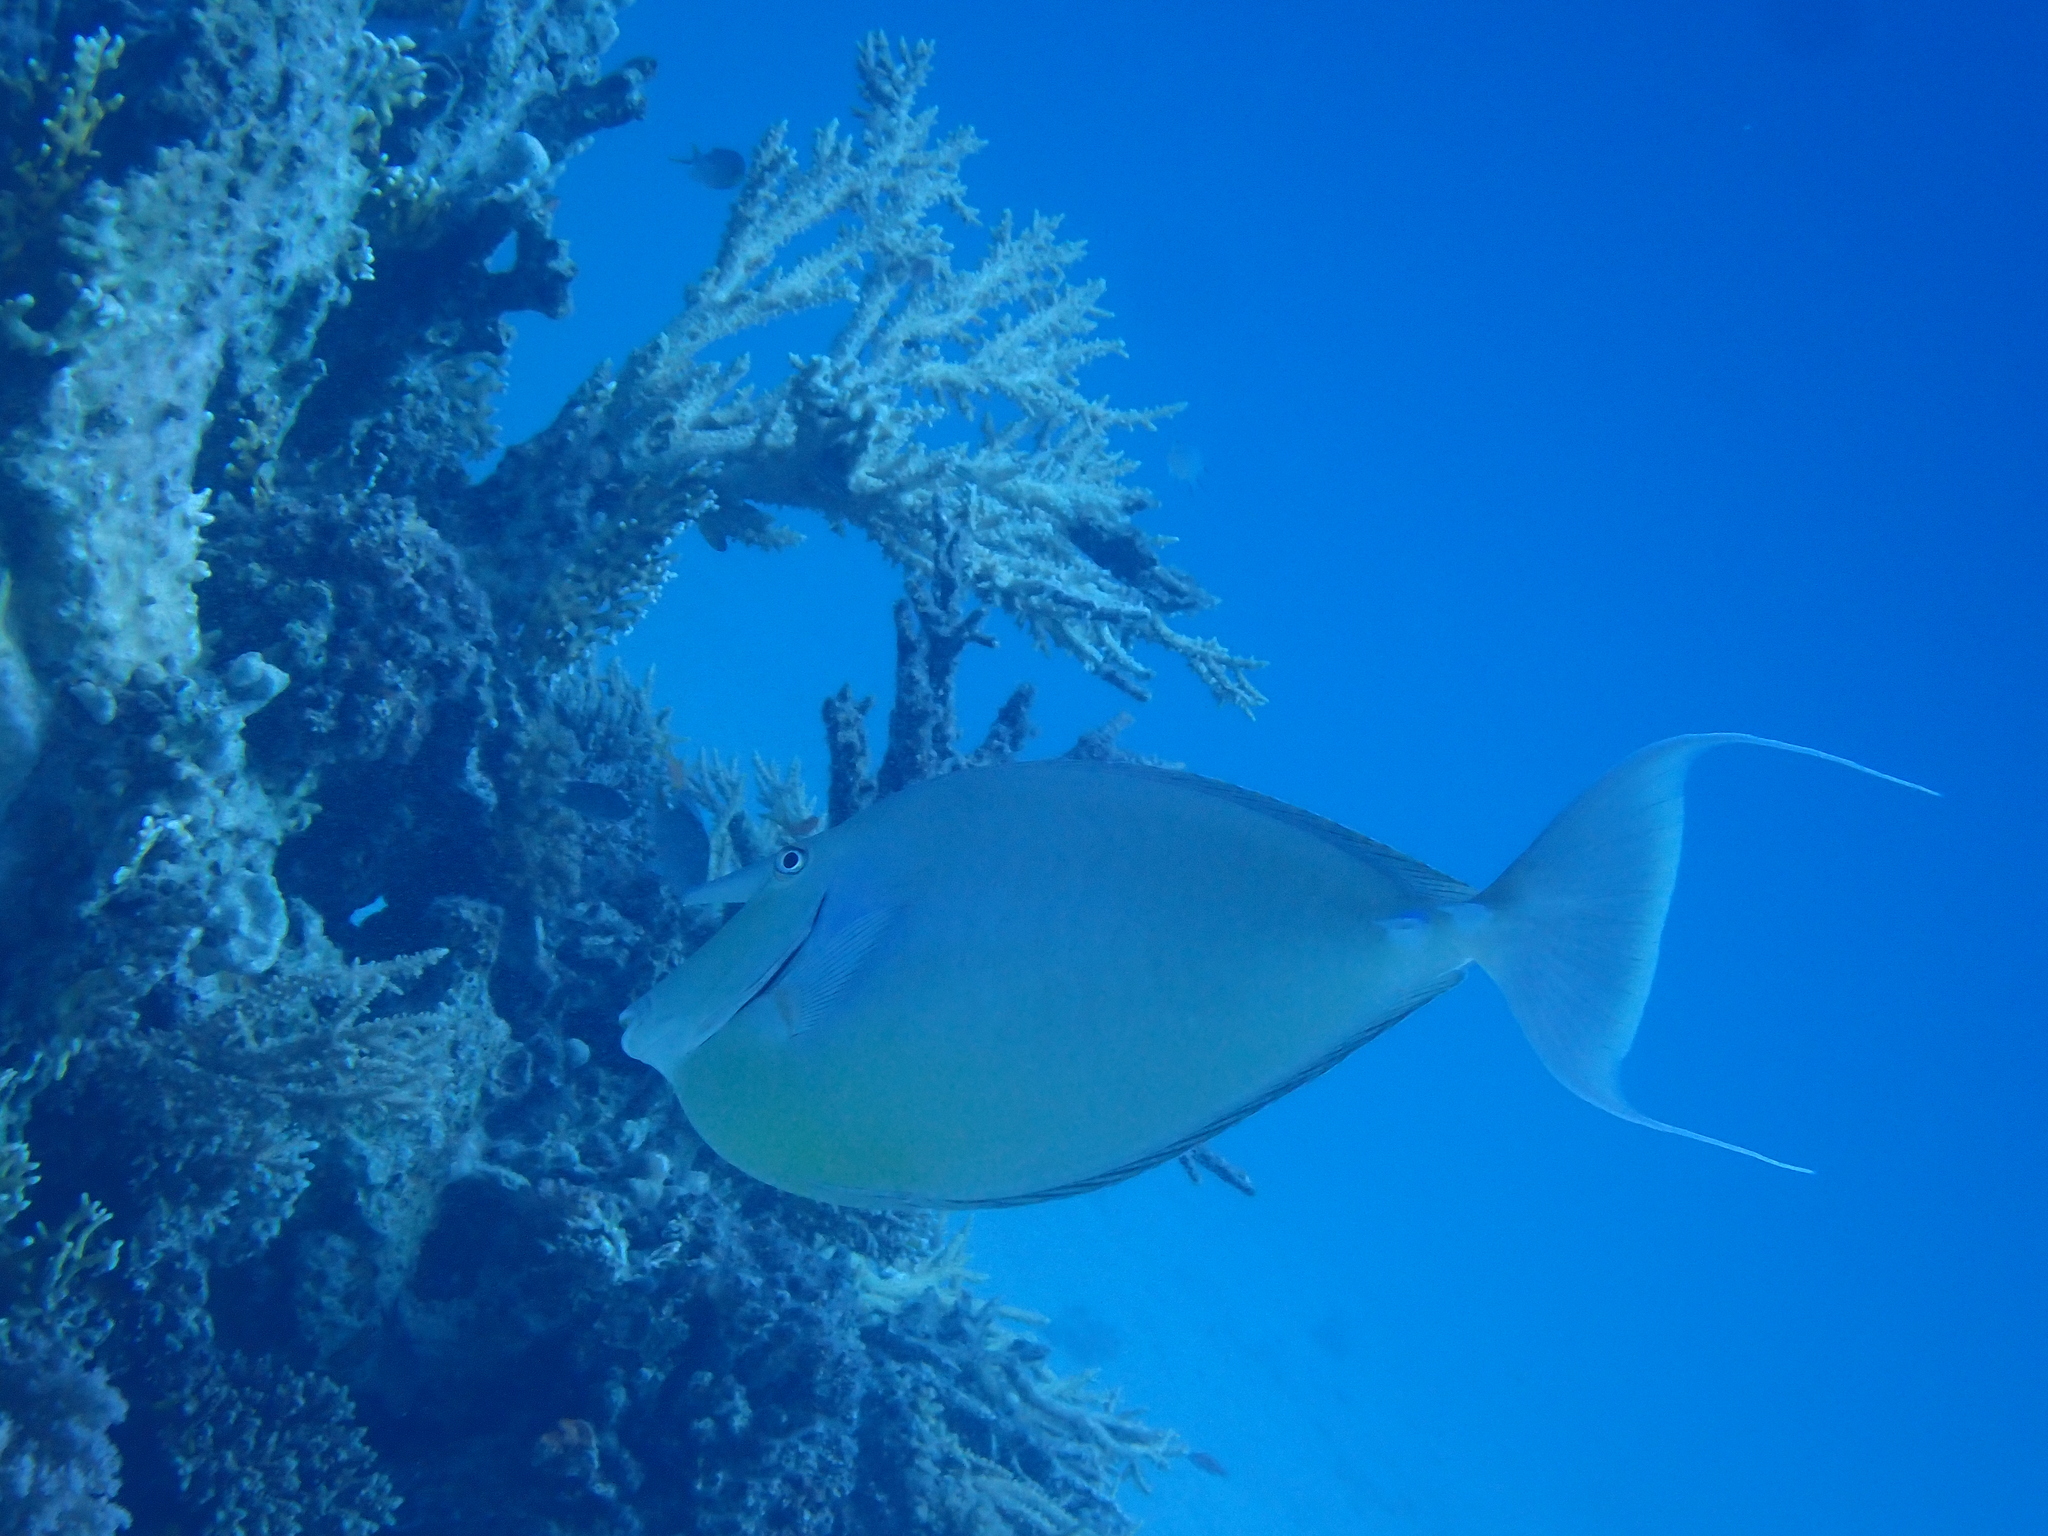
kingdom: Animalia
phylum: Chordata
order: Perciformes
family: Acanthuridae
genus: Naso
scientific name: Naso unicornis
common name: Bluespine unicornfish
